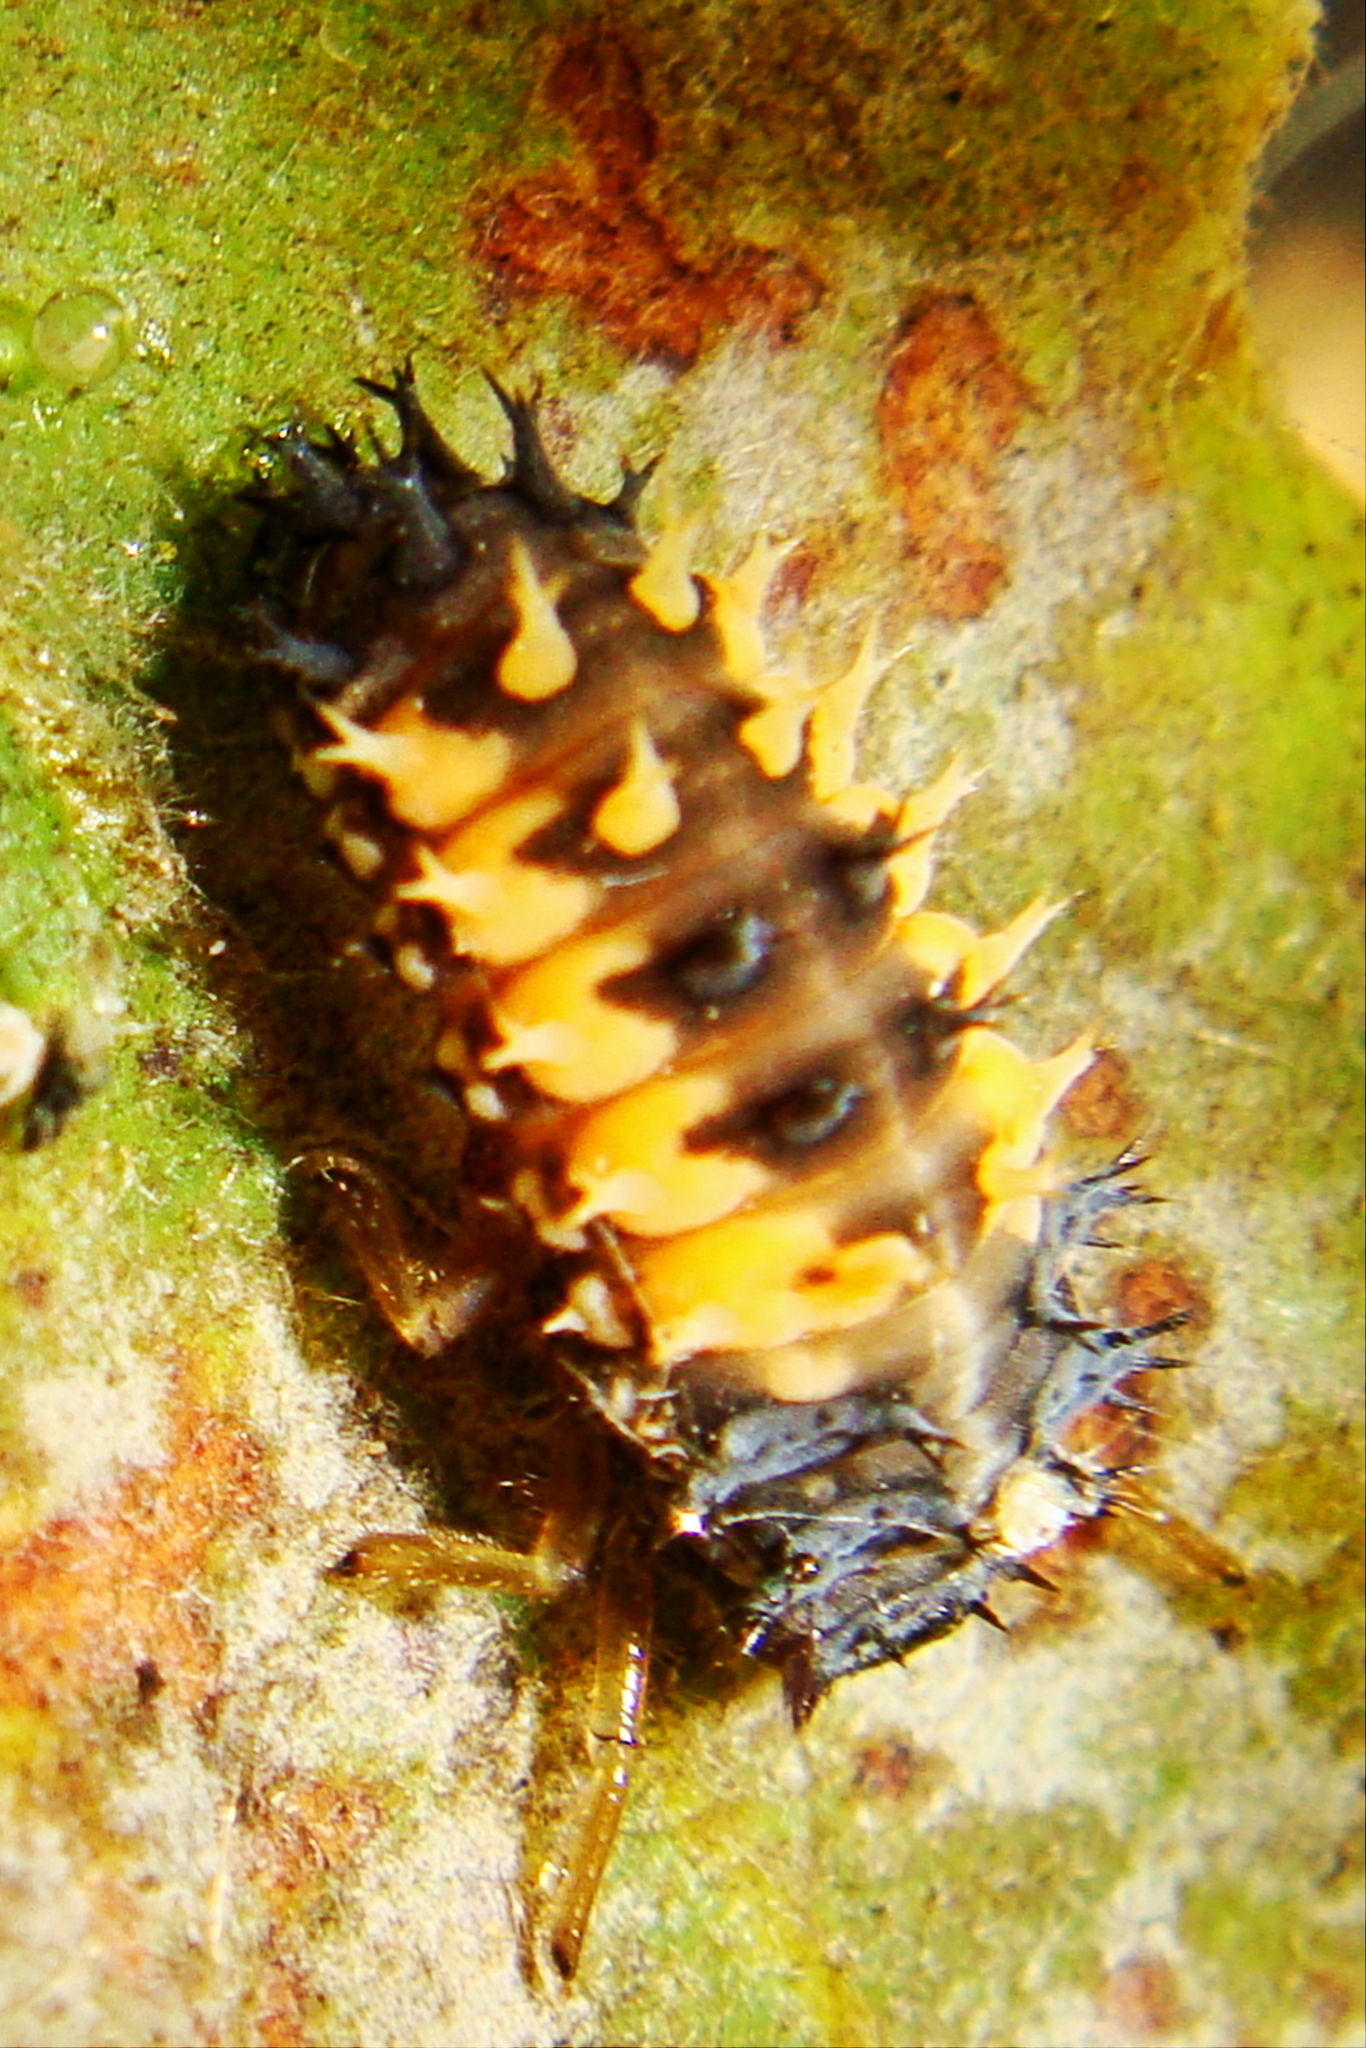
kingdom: Animalia
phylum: Arthropoda
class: Insecta
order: Coleoptera
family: Coccinellidae
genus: Harmonia
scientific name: Harmonia axyridis
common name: Harlequin ladybird
